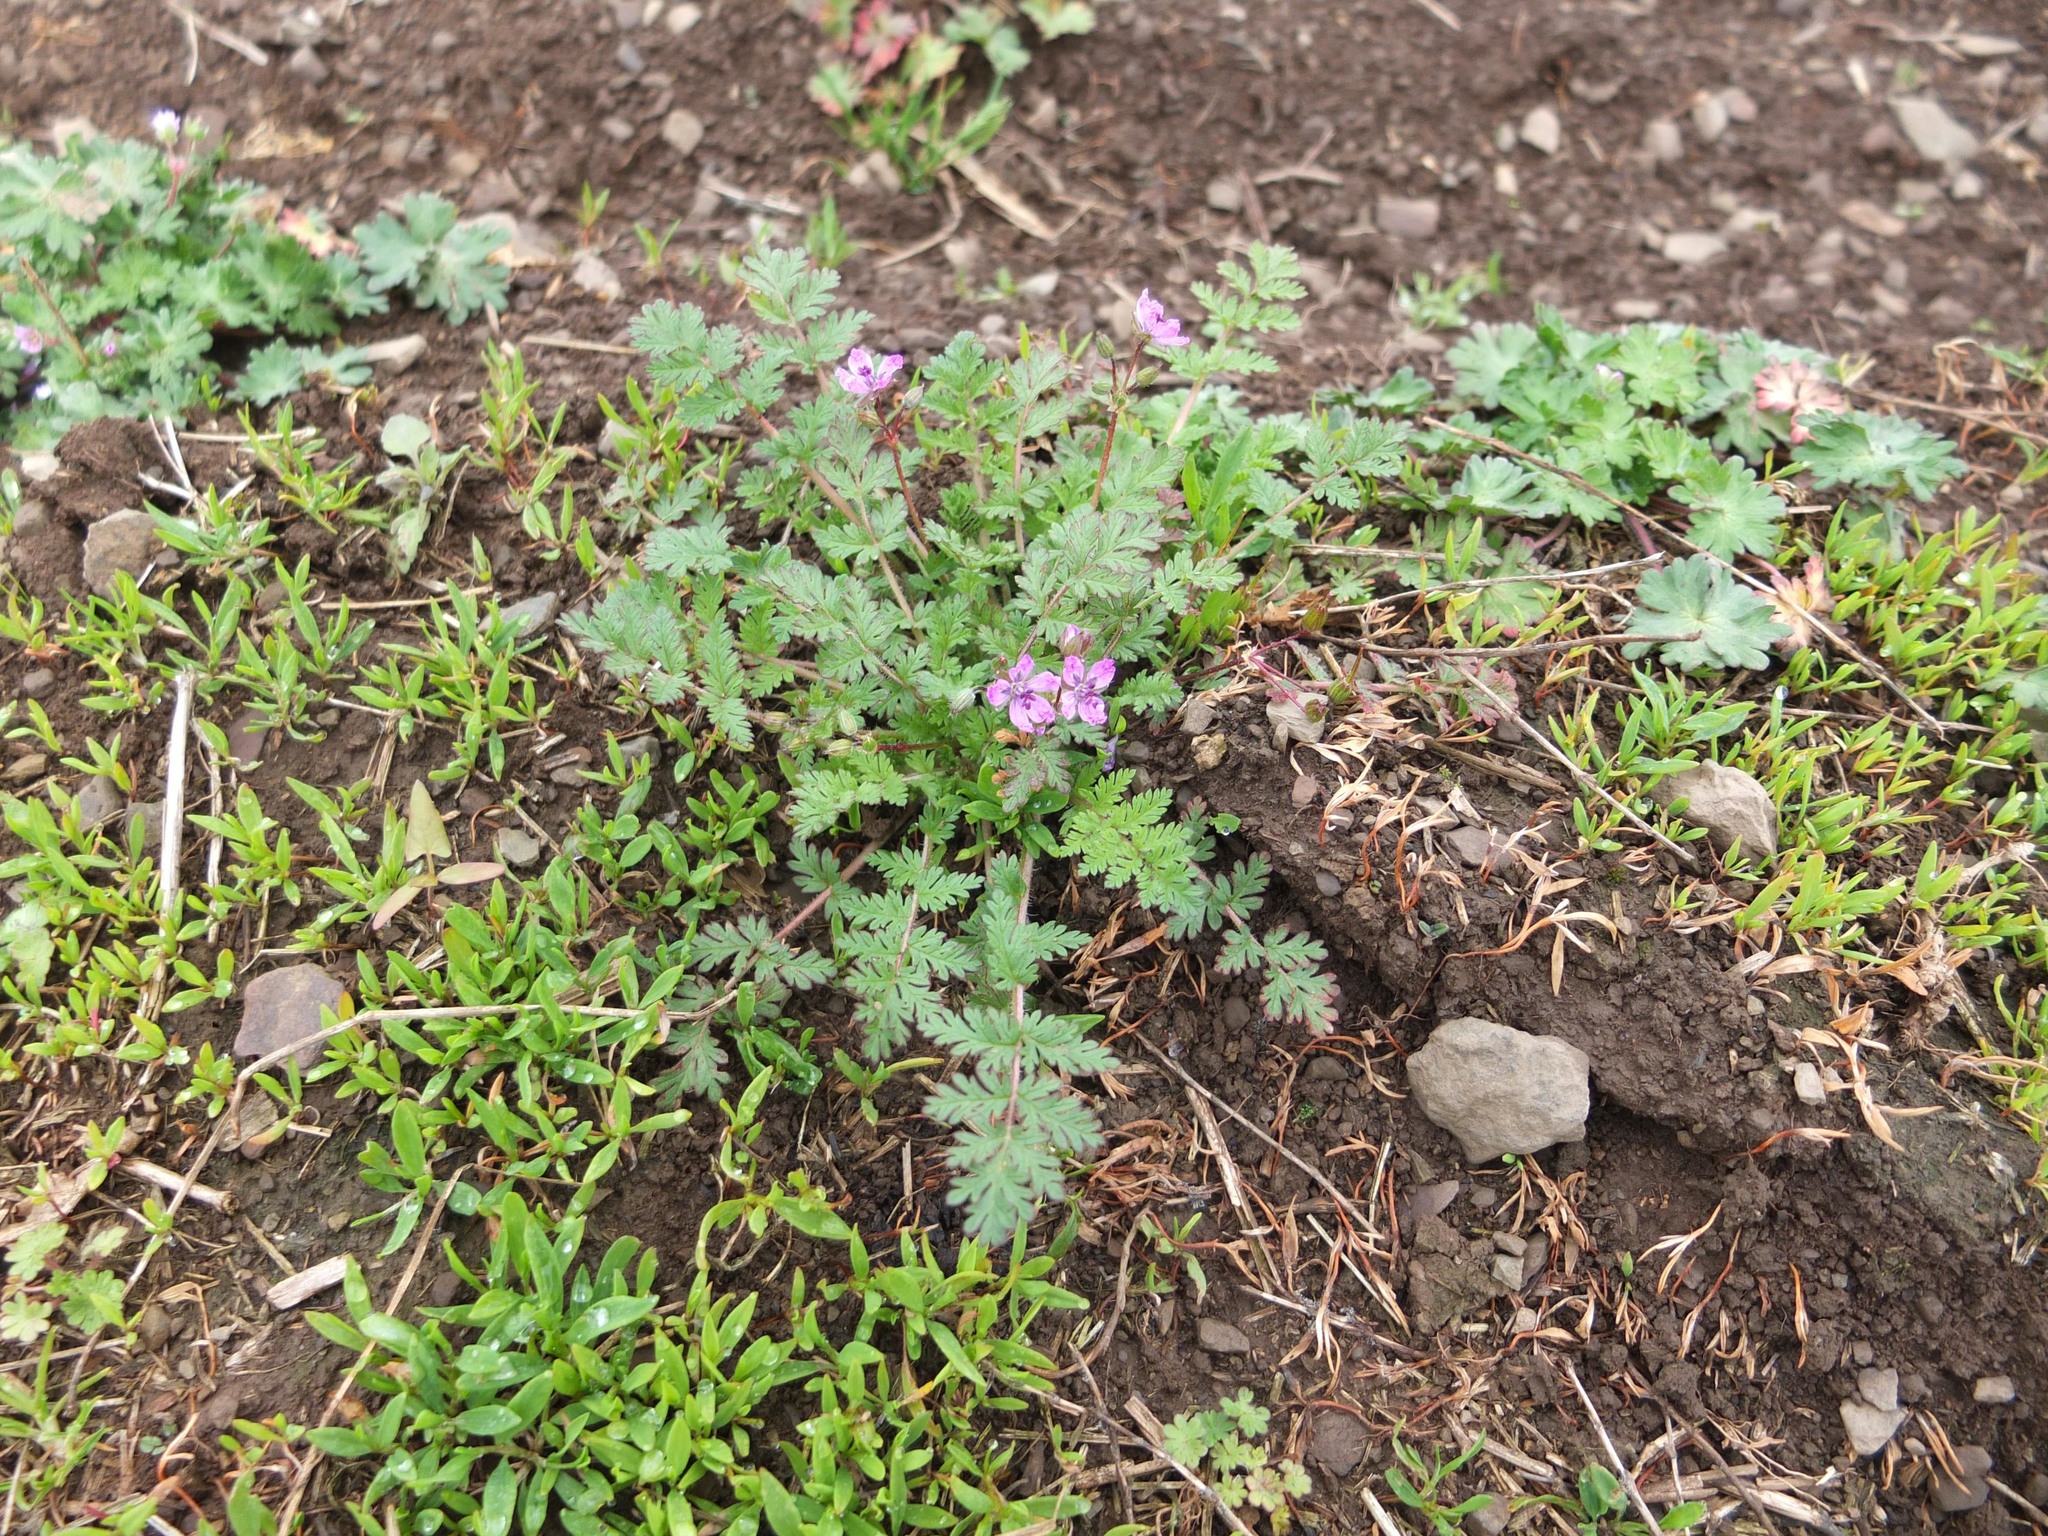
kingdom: Plantae
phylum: Tracheophyta
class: Magnoliopsida
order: Geraniales
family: Geraniaceae
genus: Erodium
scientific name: Erodium cicutarium
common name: Common stork's-bill
